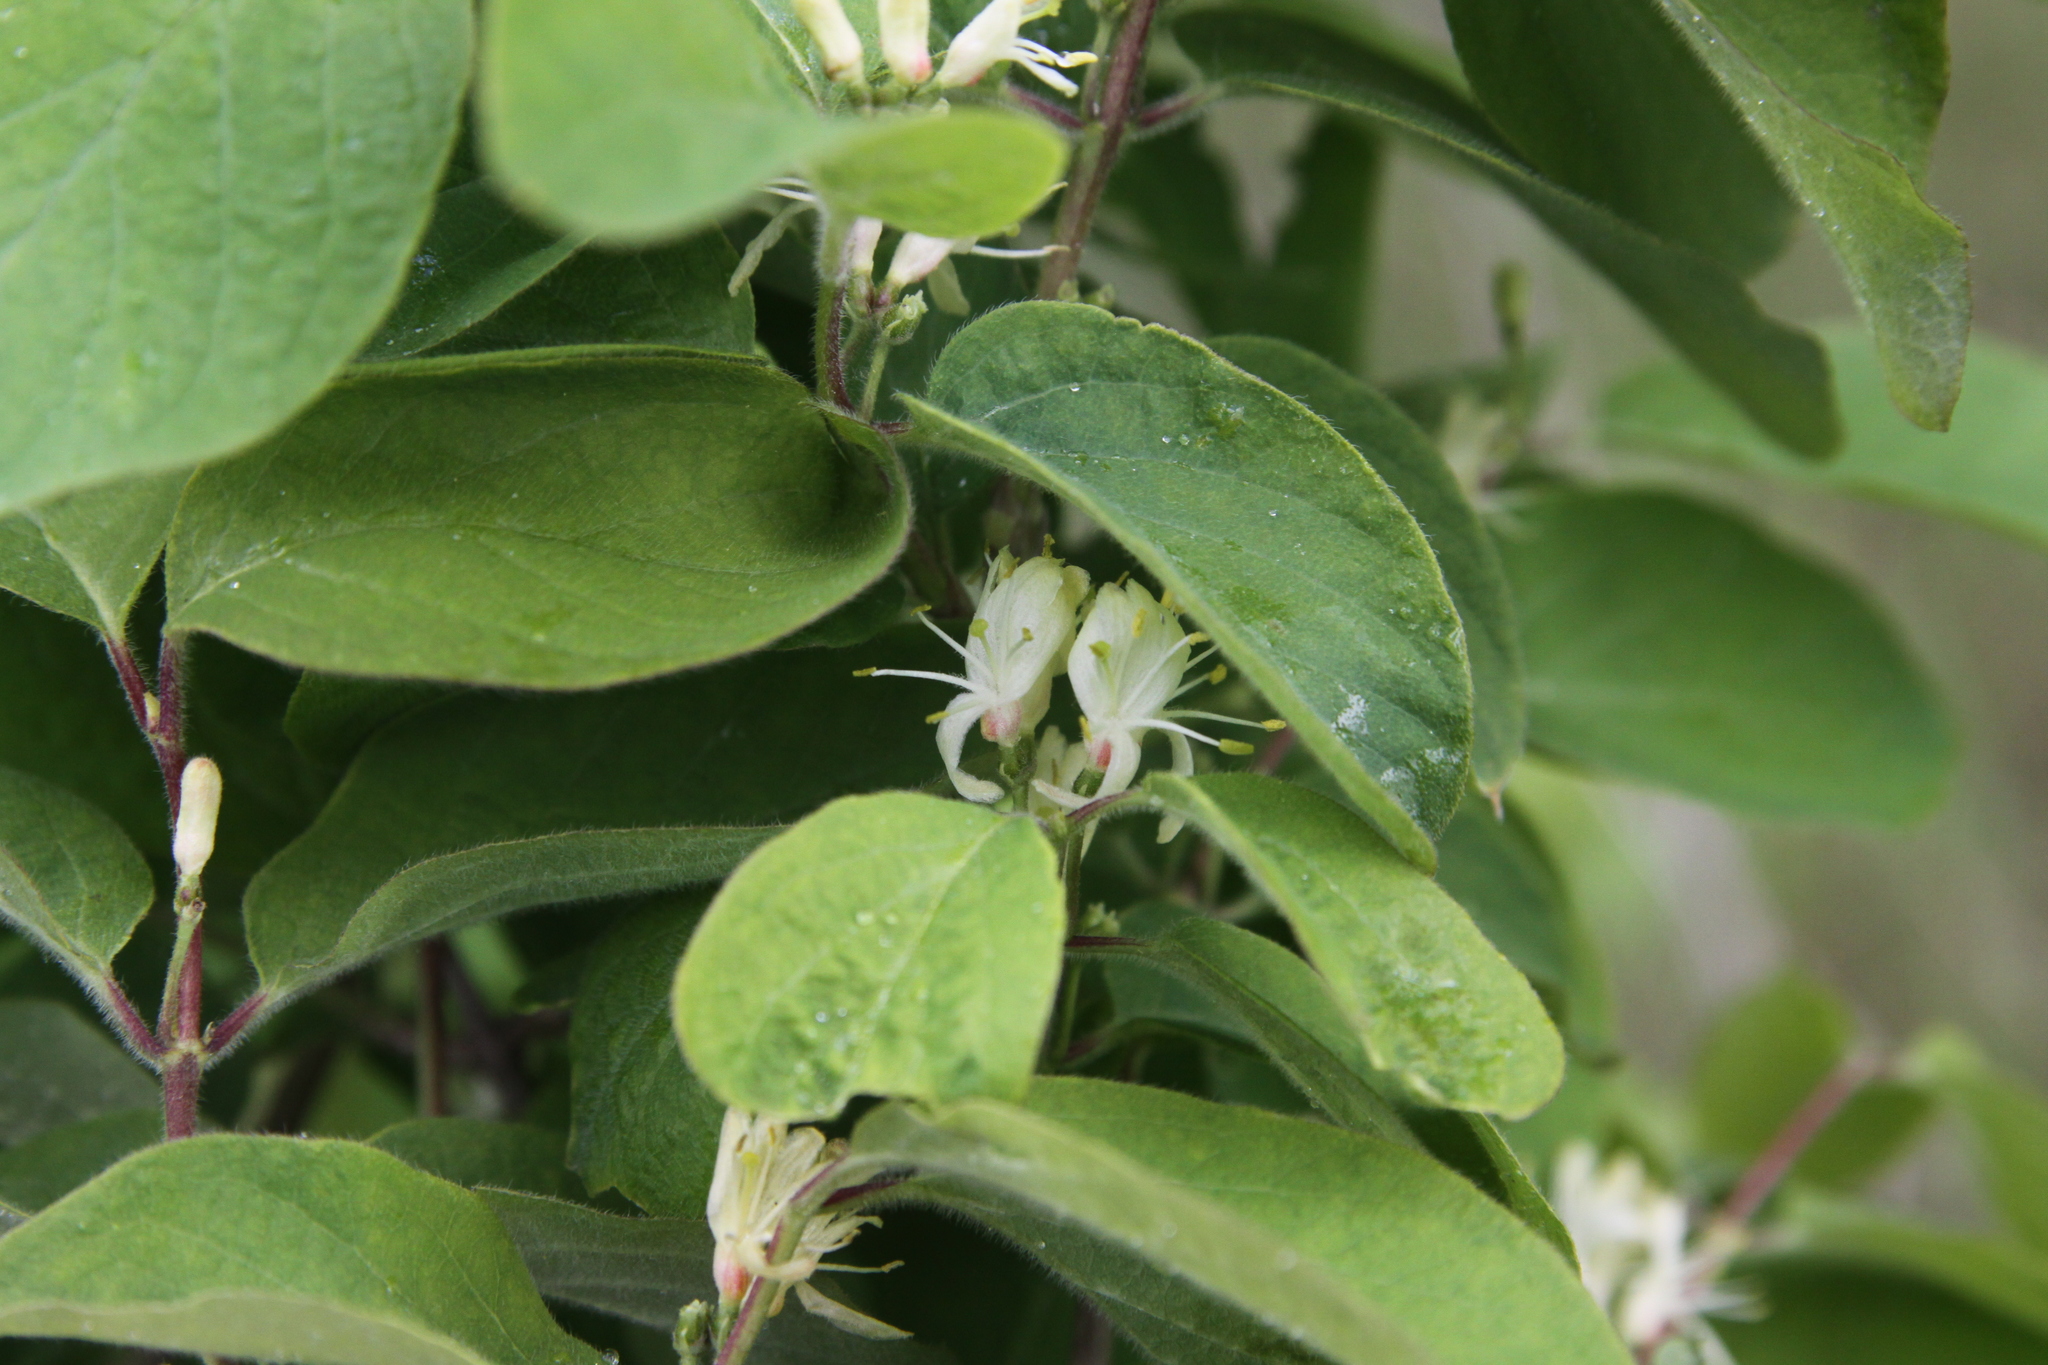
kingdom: Plantae
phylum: Tracheophyta
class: Magnoliopsida
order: Dipsacales
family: Caprifoliaceae
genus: Lonicera
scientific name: Lonicera xylosteum
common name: Fly honeysuckle
